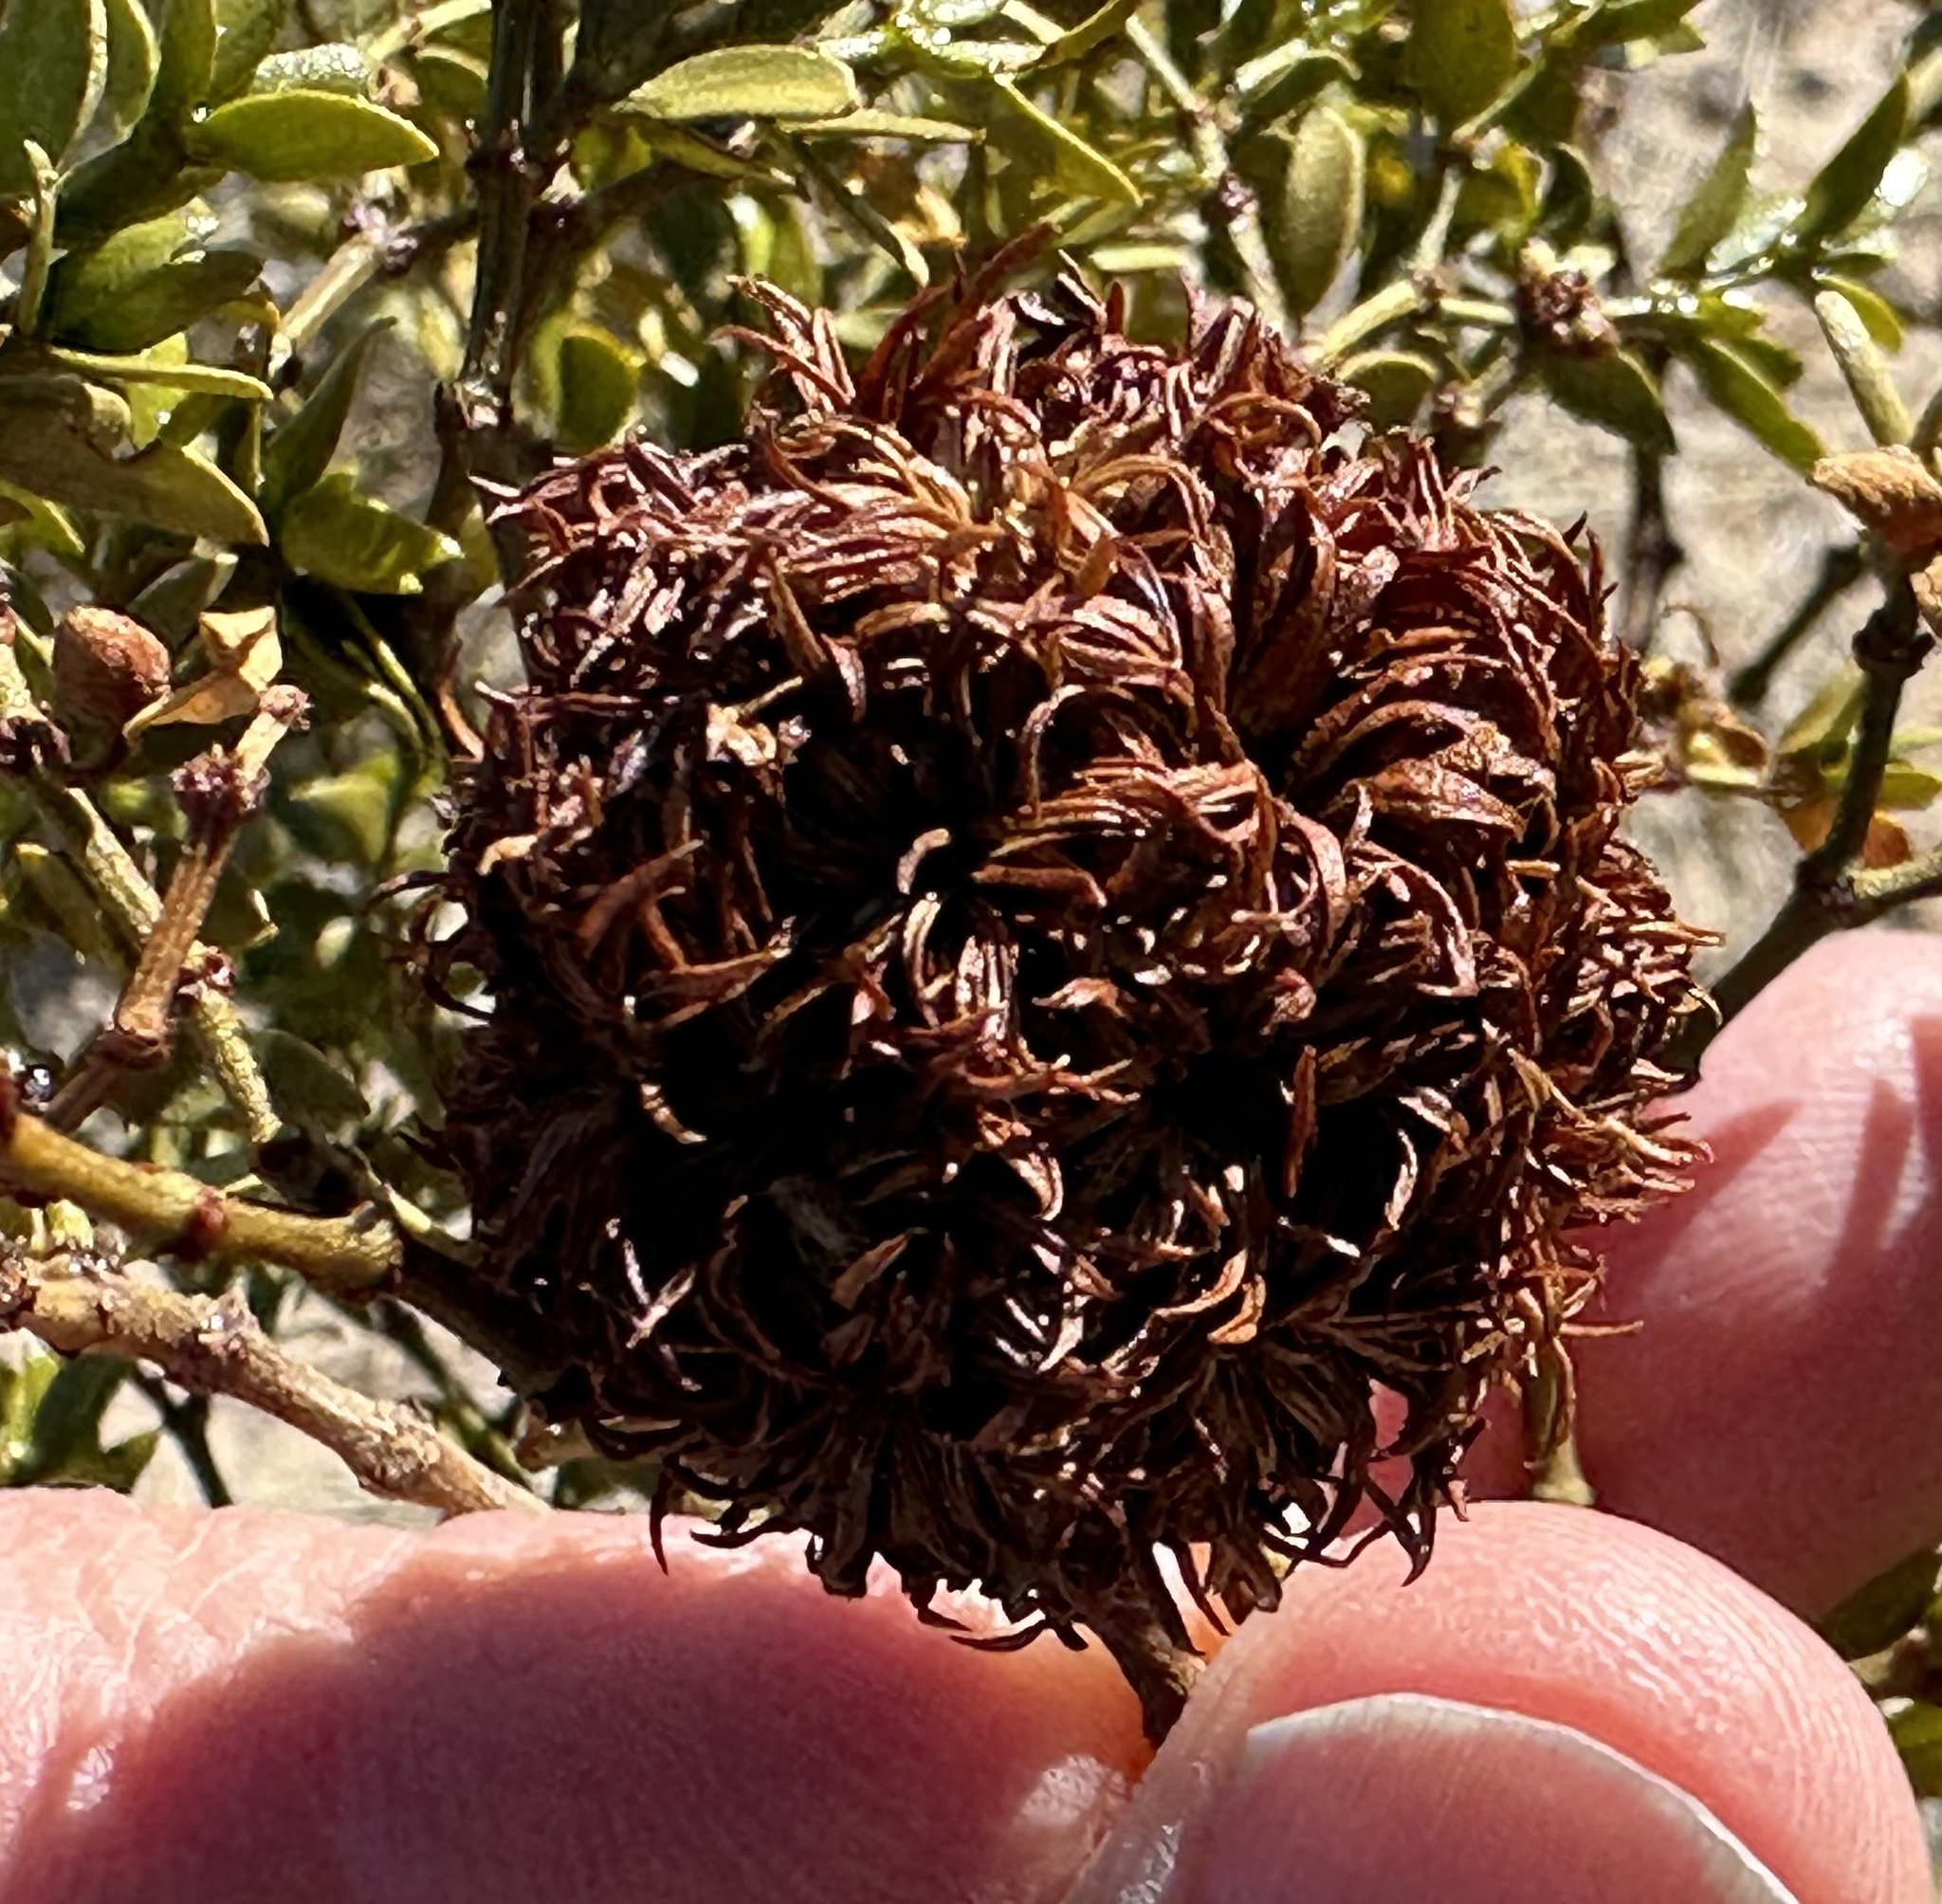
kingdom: Animalia
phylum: Arthropoda
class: Insecta
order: Diptera
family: Cecidomyiidae
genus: Asphondylia
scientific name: Asphondylia auripila
